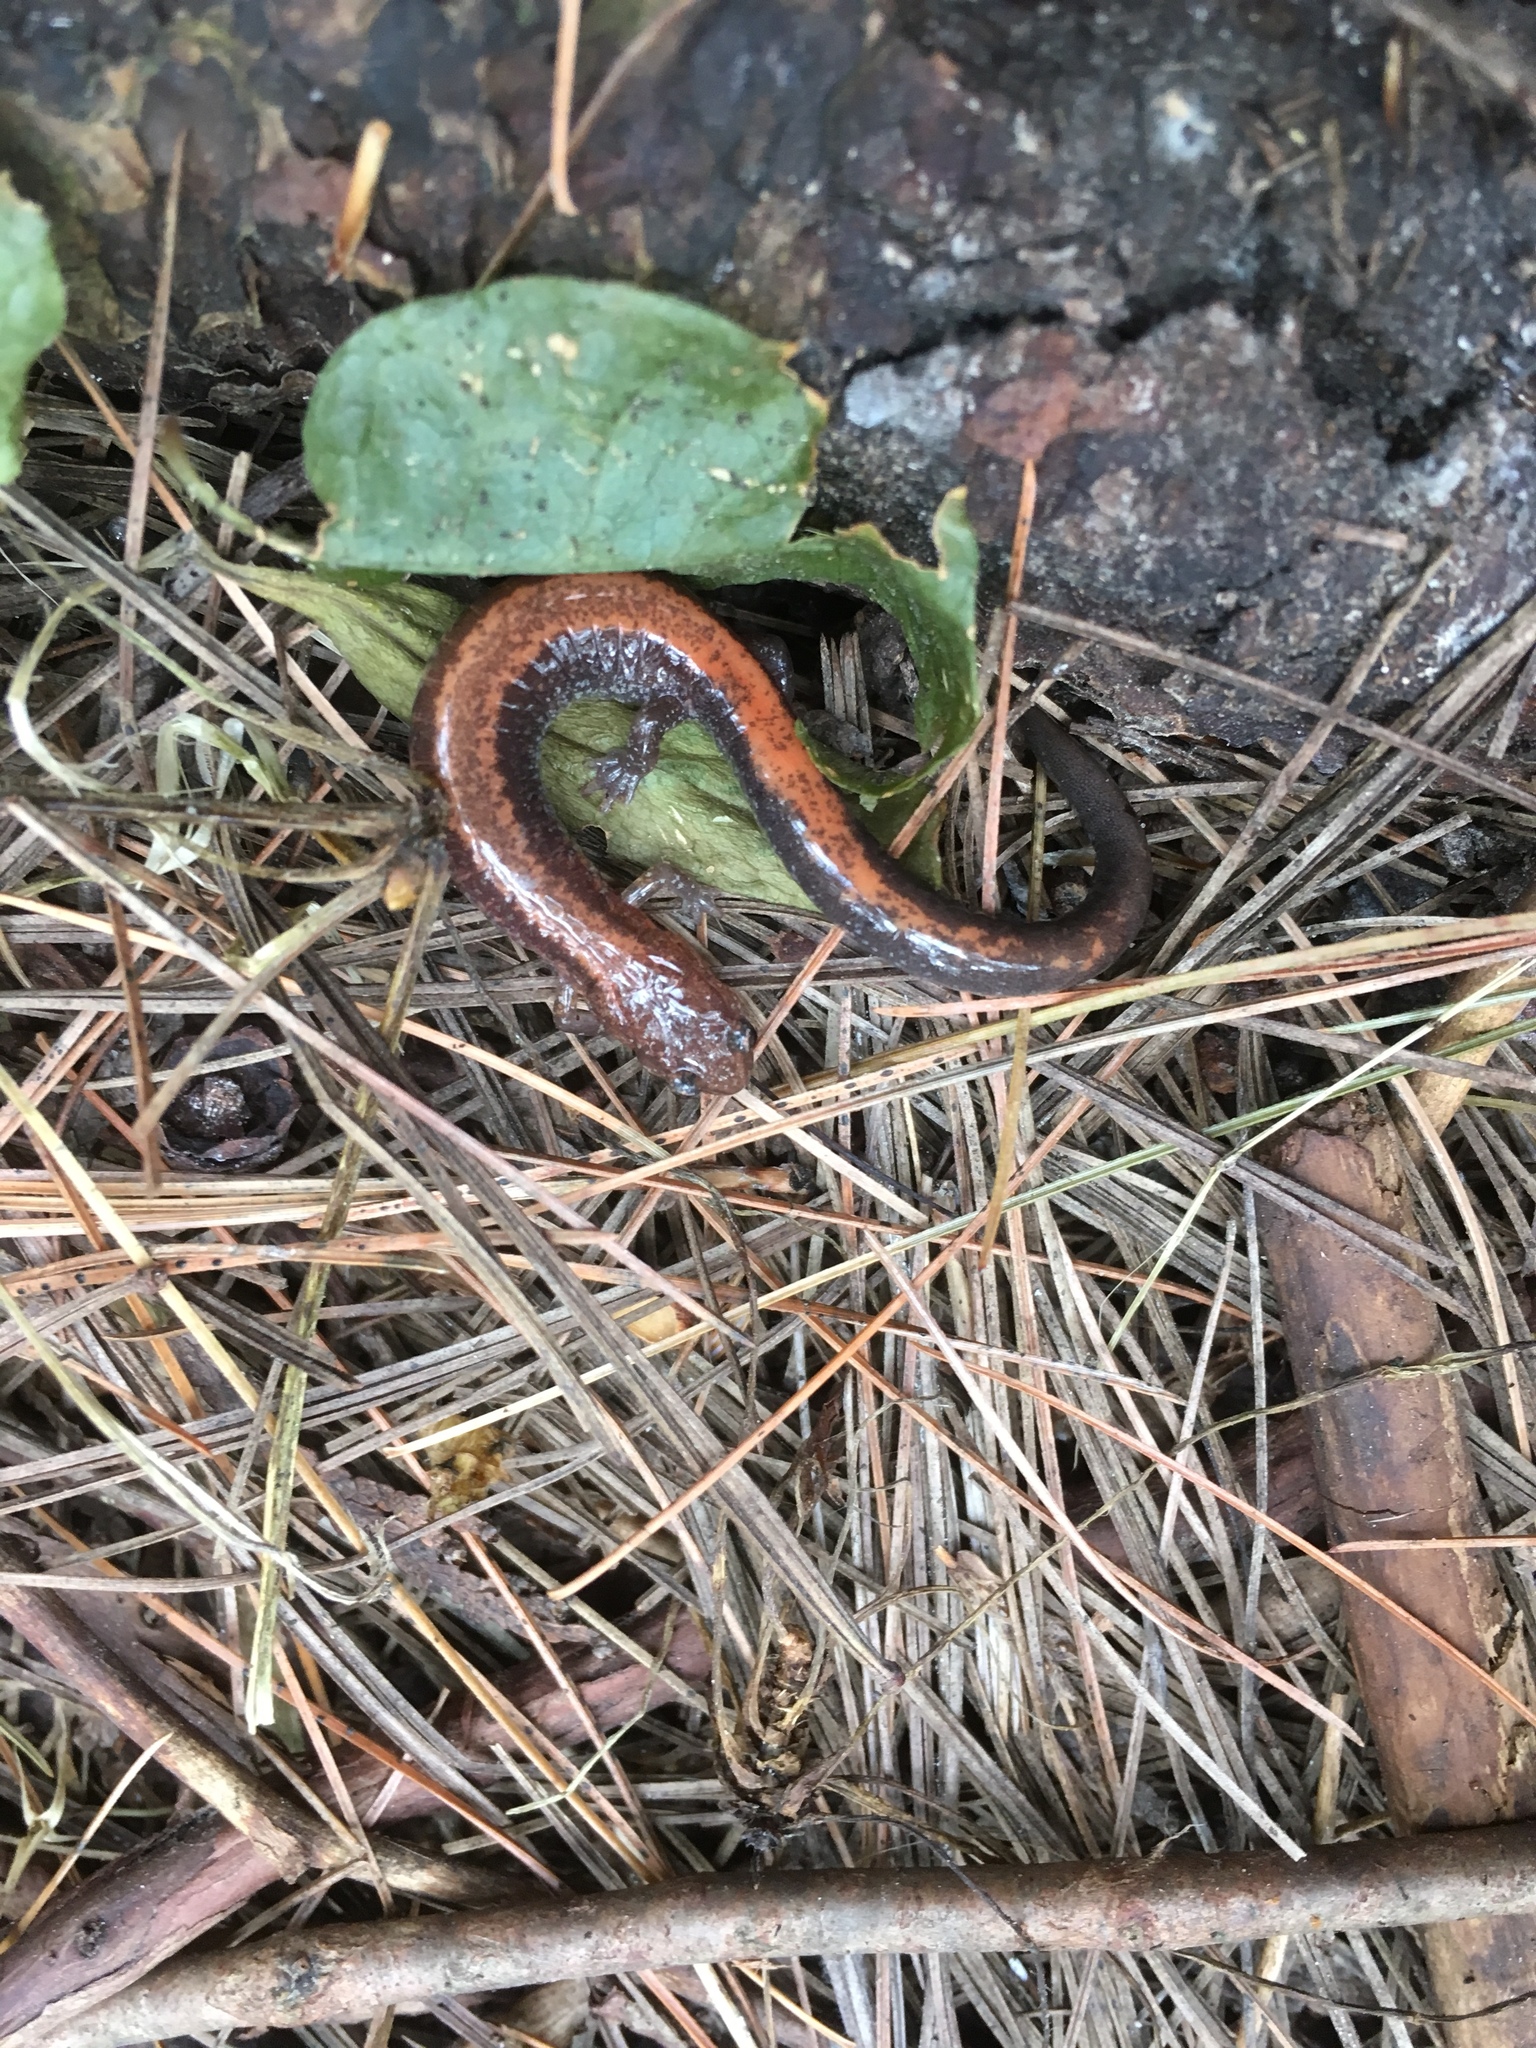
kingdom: Animalia
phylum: Chordata
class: Amphibia
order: Caudata
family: Plethodontidae
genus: Plethodon
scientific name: Plethodon cinereus
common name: Redback salamander
